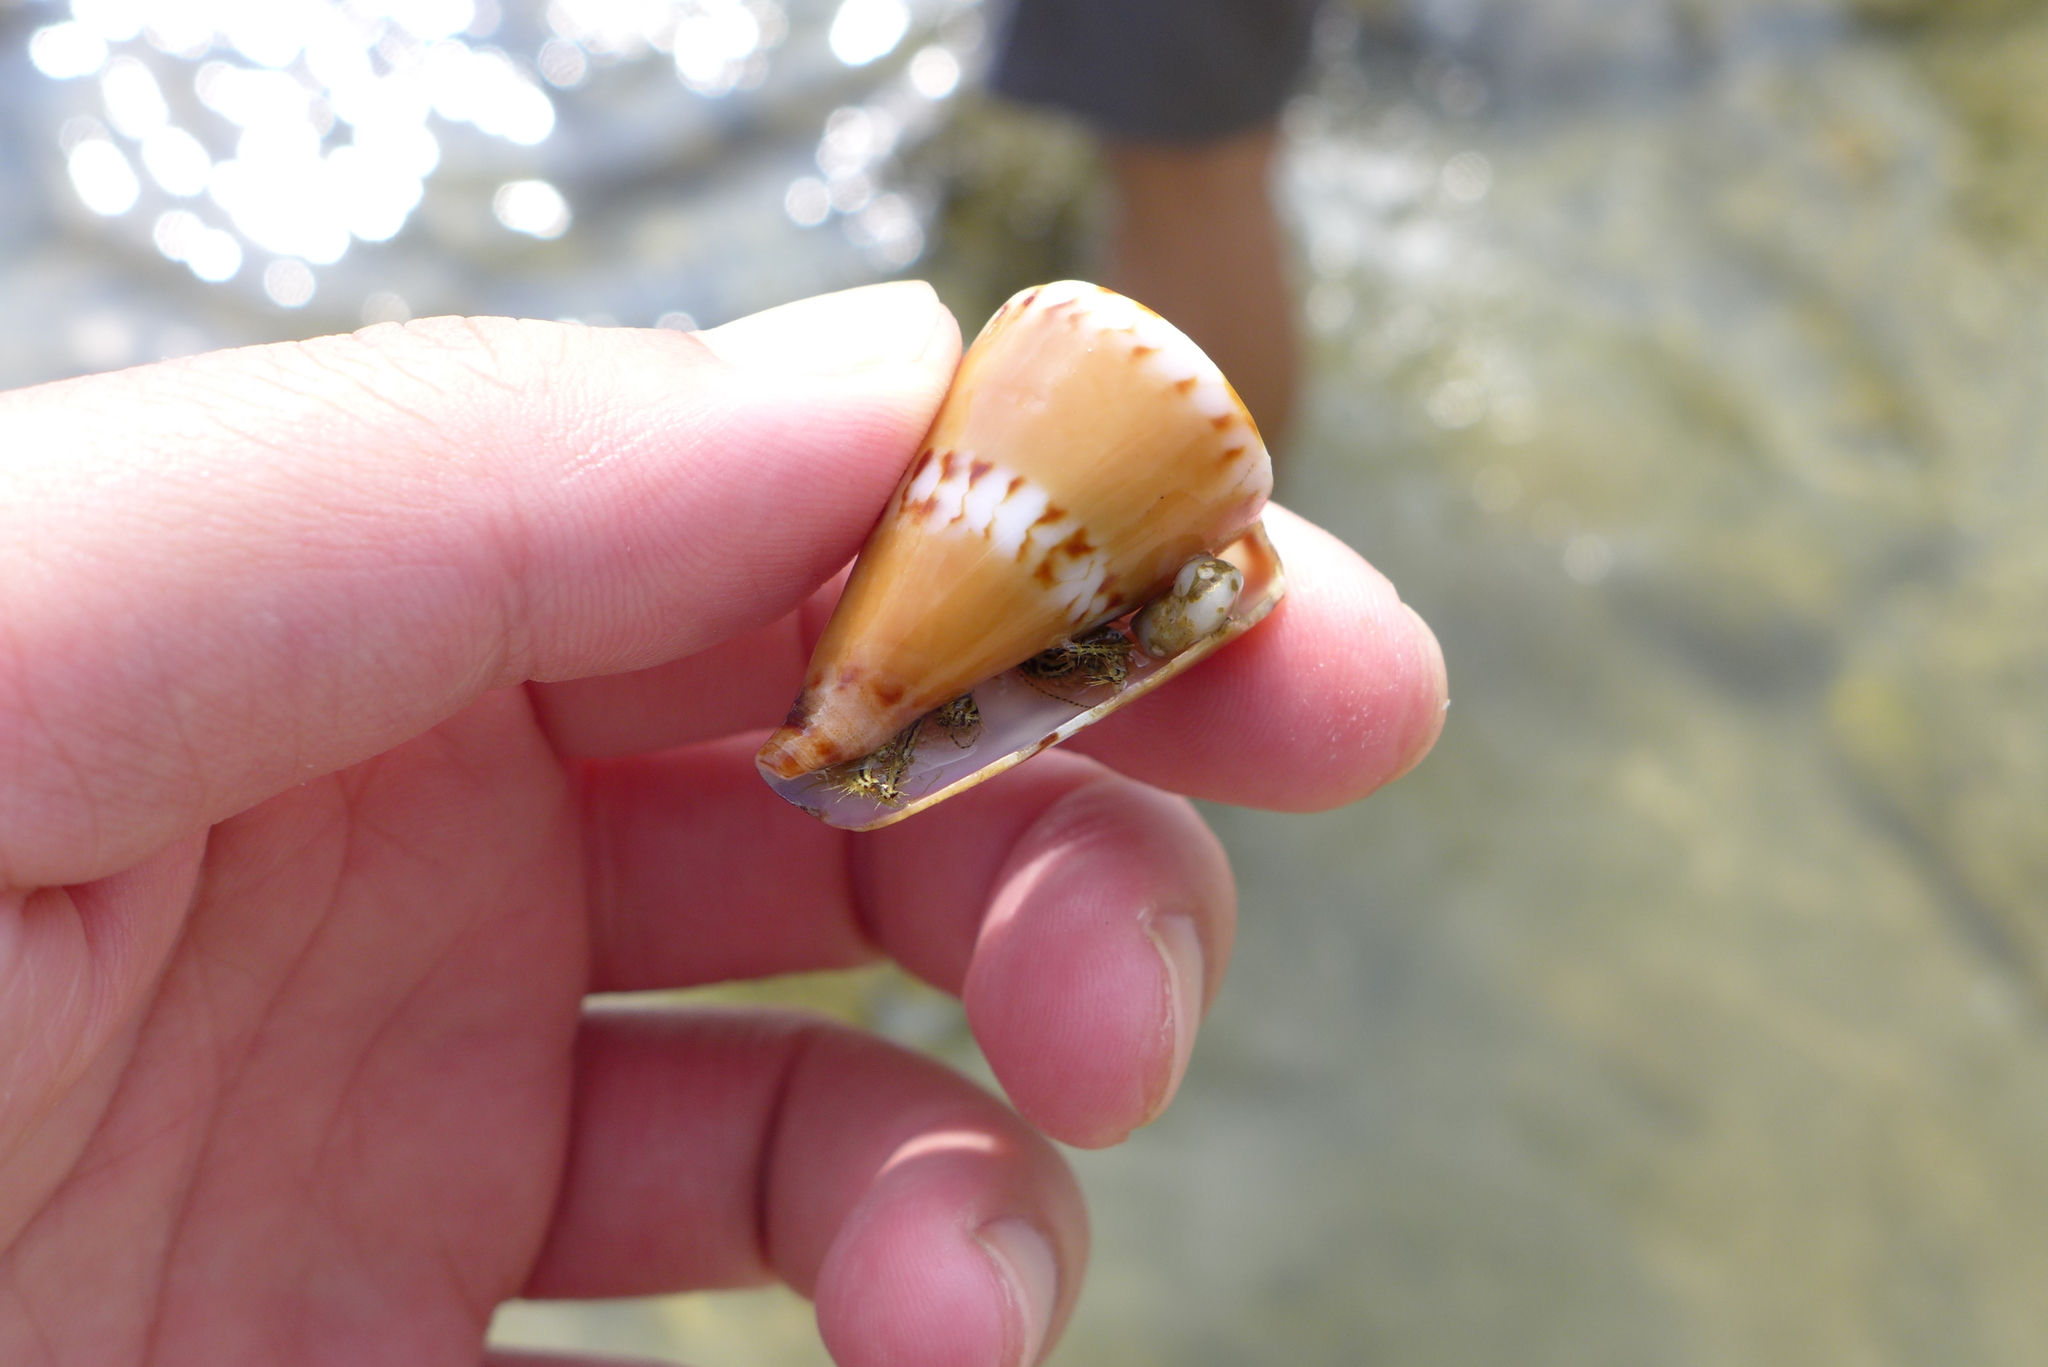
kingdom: Animalia
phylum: Mollusca
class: Gastropoda
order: Neogastropoda
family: Conidae
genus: Conus
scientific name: Conus capitaneus
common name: Captain cone
